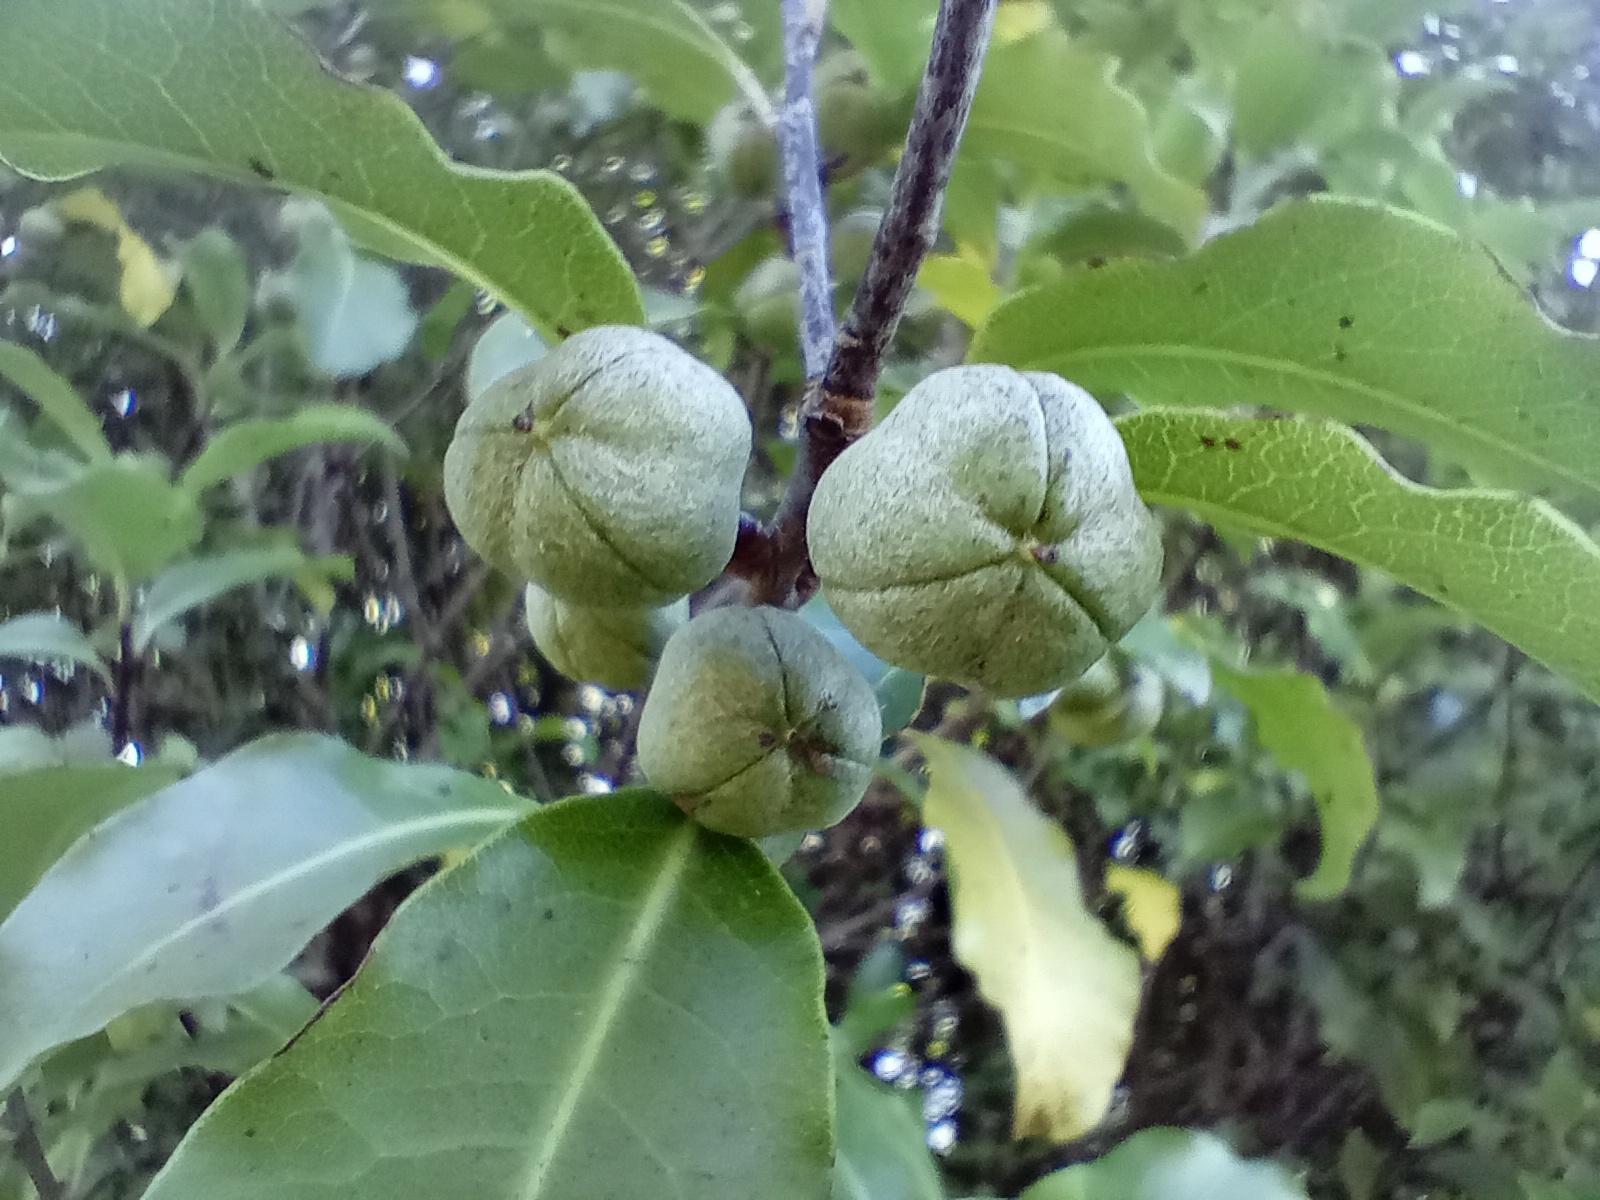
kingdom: Plantae
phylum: Tracheophyta
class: Magnoliopsida
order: Apiales
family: Pittosporaceae
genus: Pittosporum
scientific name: Pittosporum tenuifolium
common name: Kohuhu
